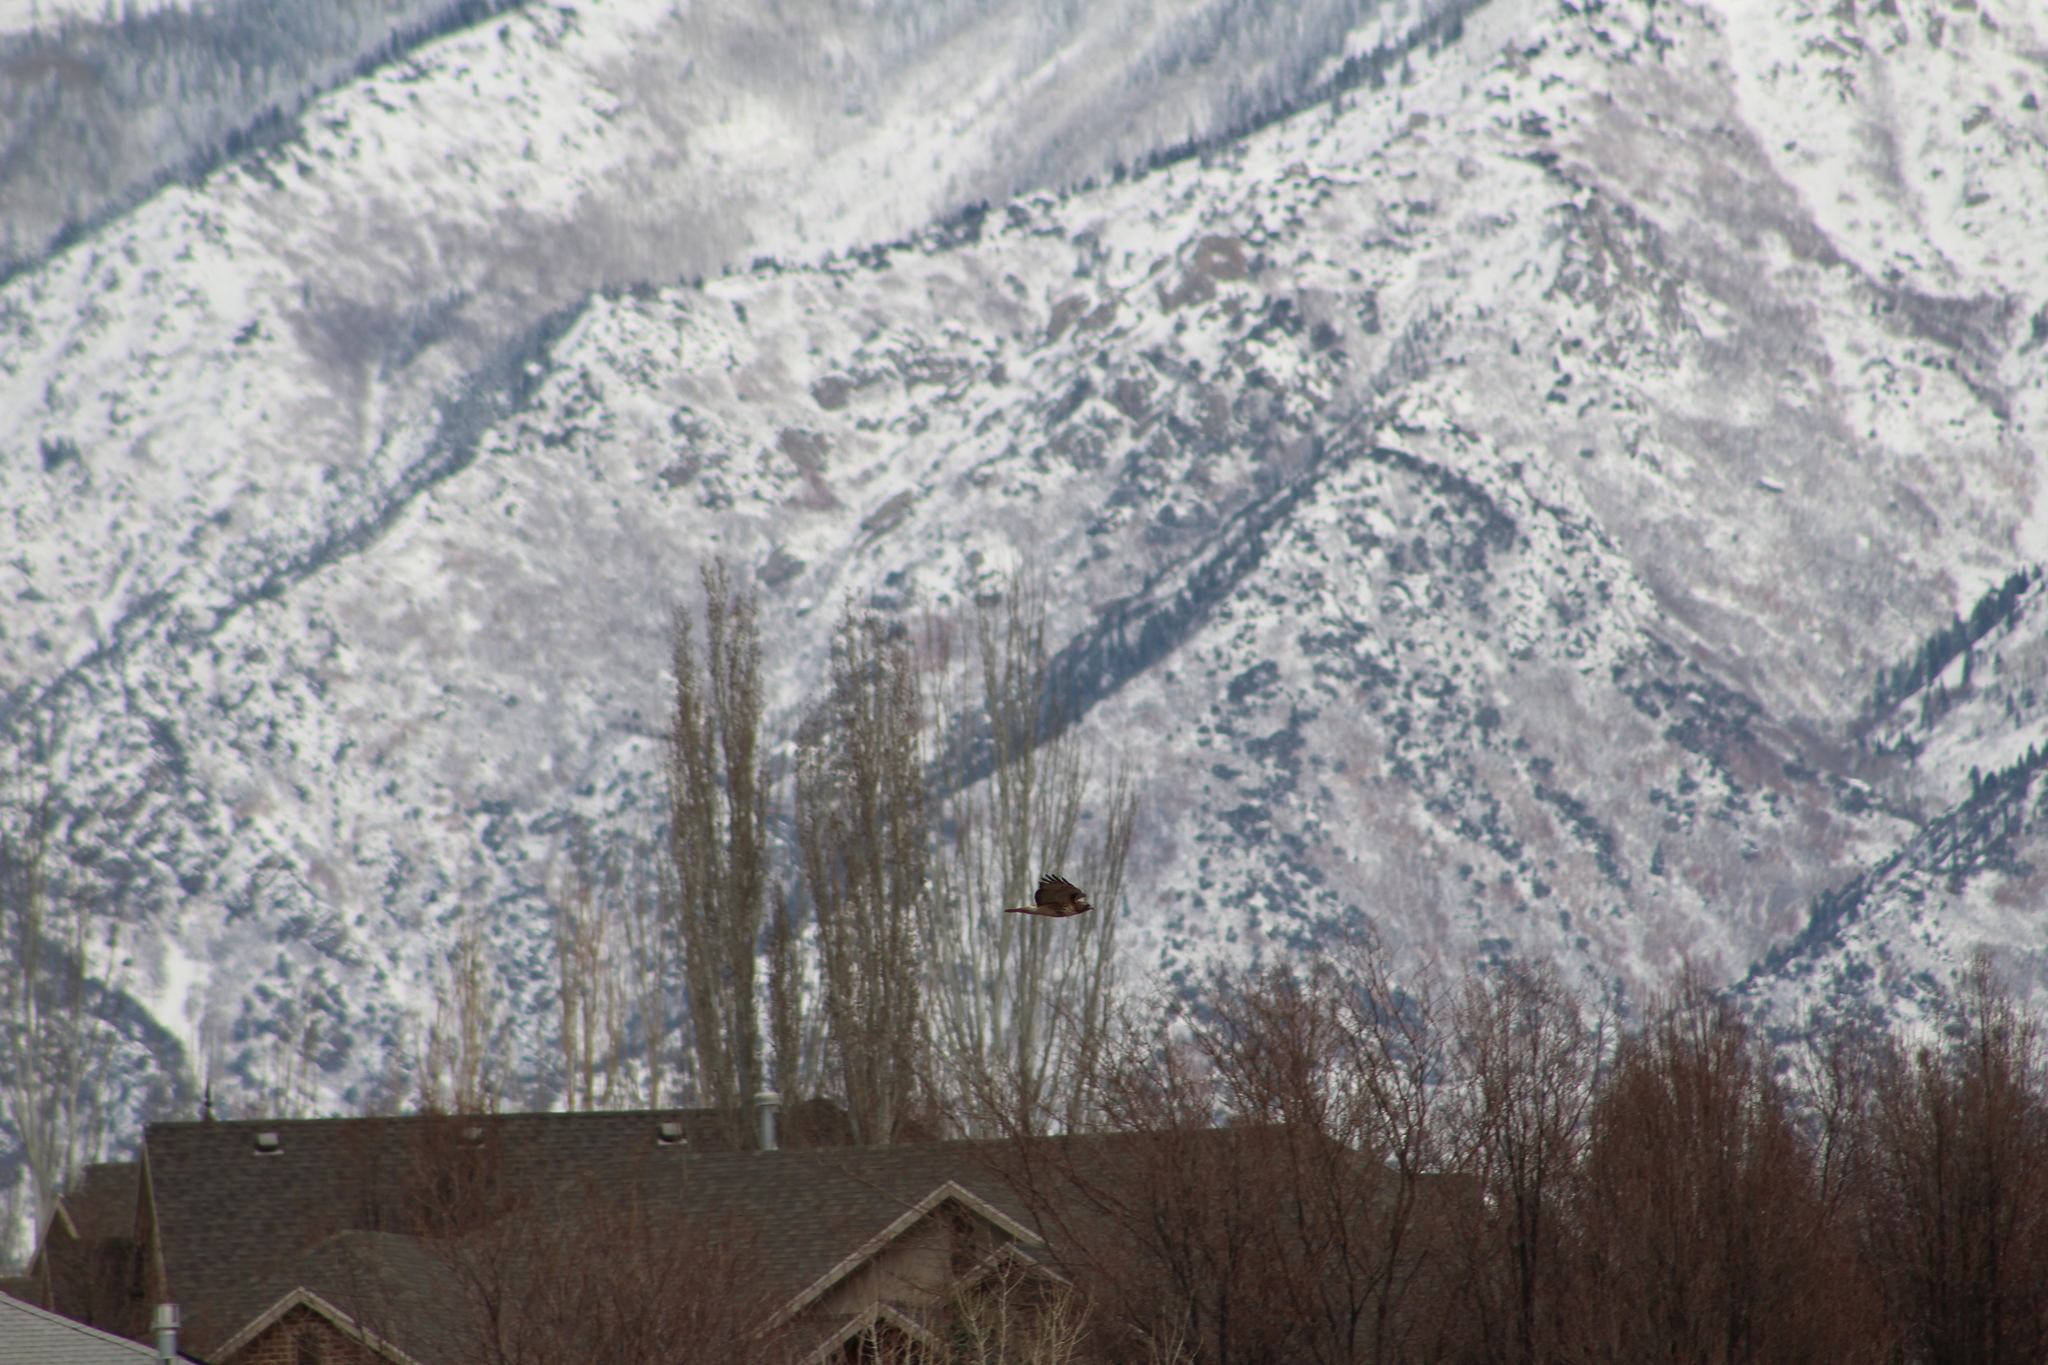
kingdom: Animalia
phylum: Chordata
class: Aves
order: Accipitriformes
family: Accipitridae
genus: Buteo
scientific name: Buteo jamaicensis
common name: Red-tailed hawk
